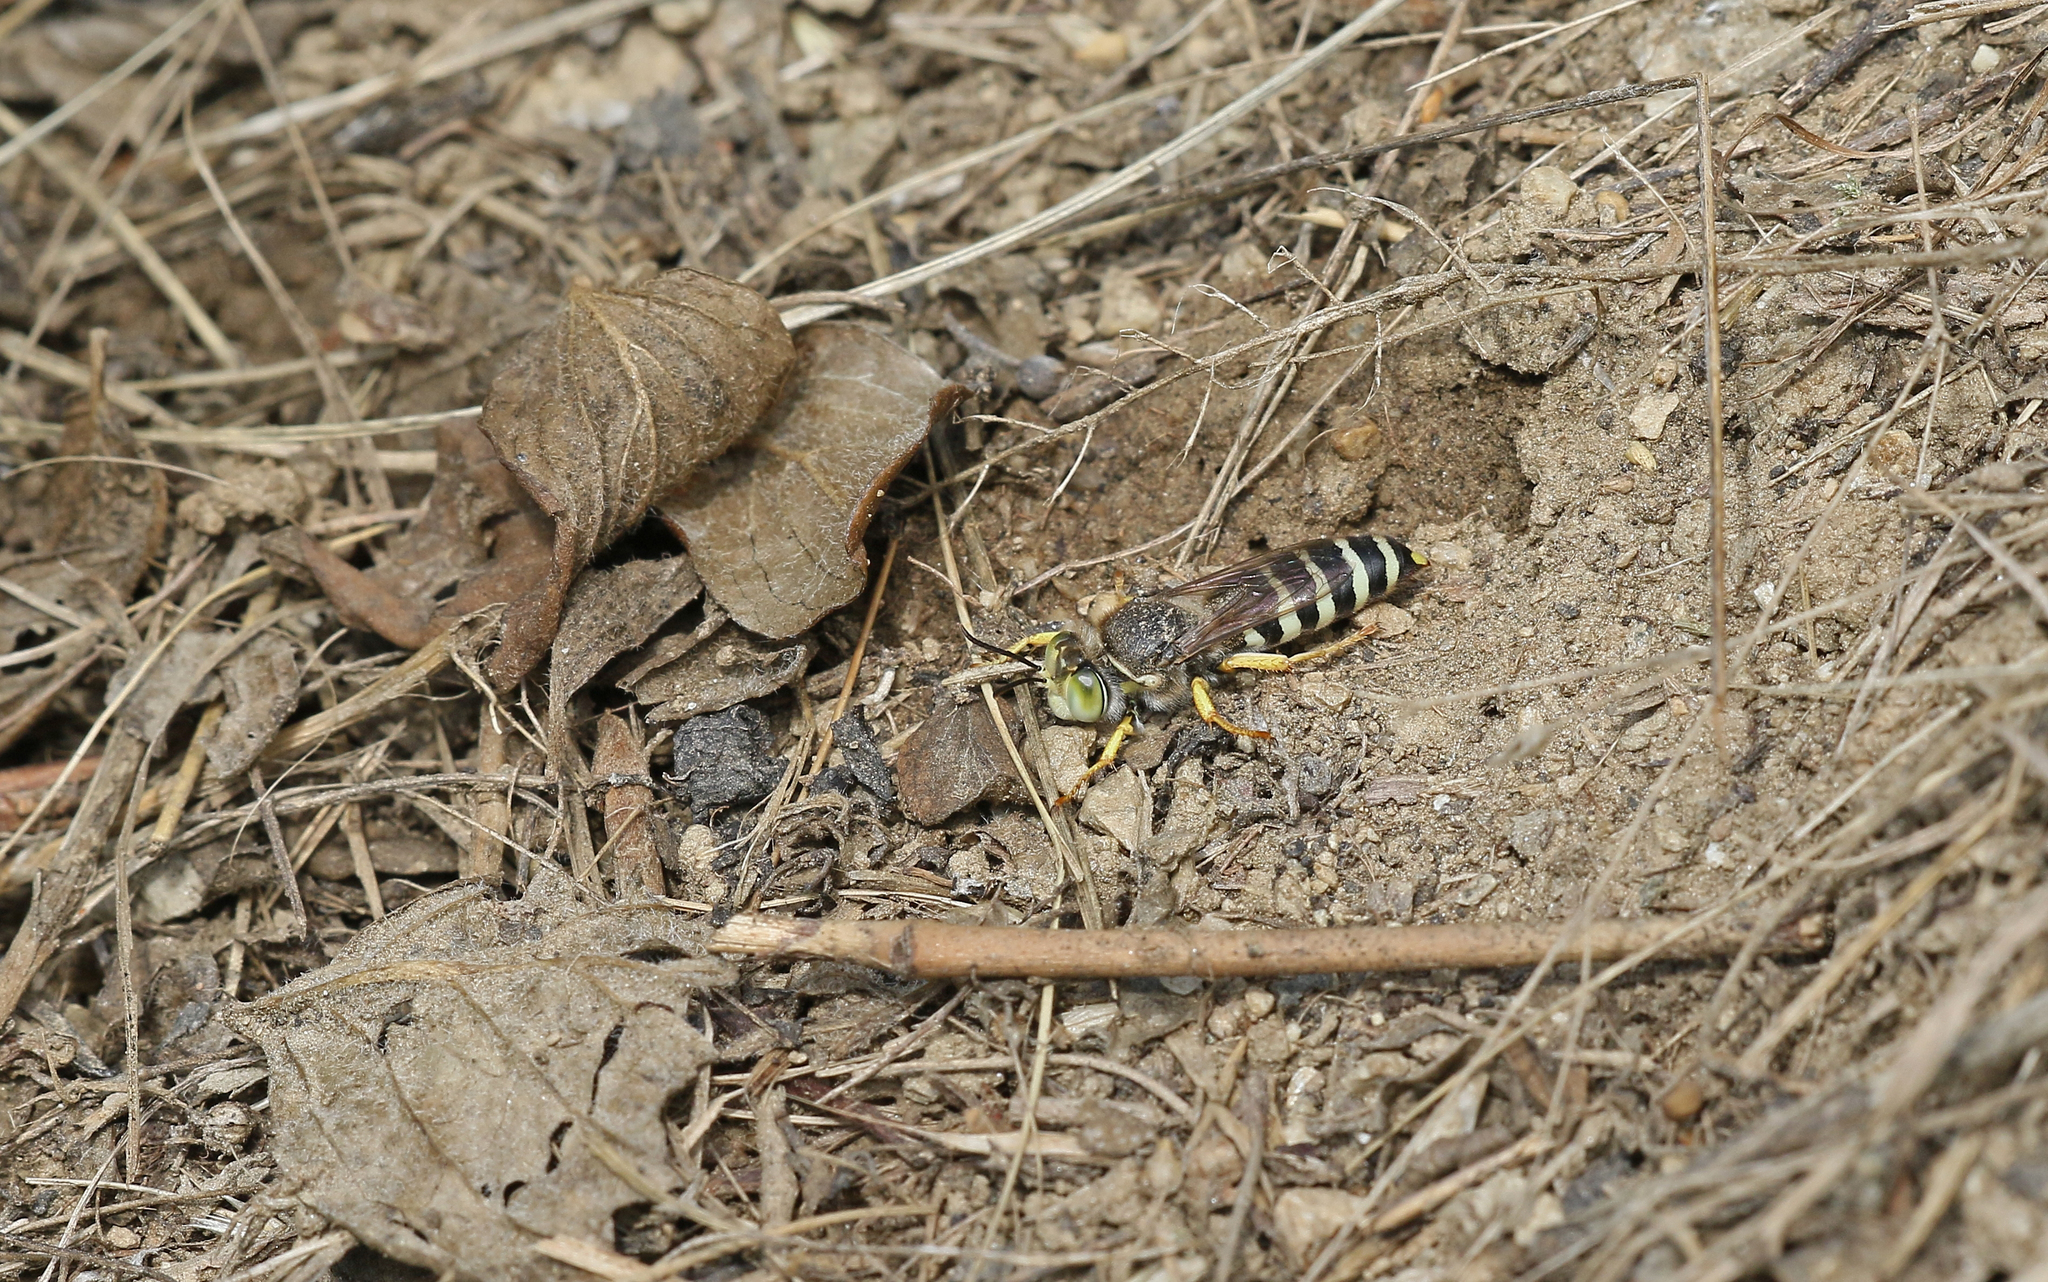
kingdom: Animalia
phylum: Arthropoda
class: Insecta
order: Hymenoptera
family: Crabronidae
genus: Bembix
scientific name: Bembix tarsata
